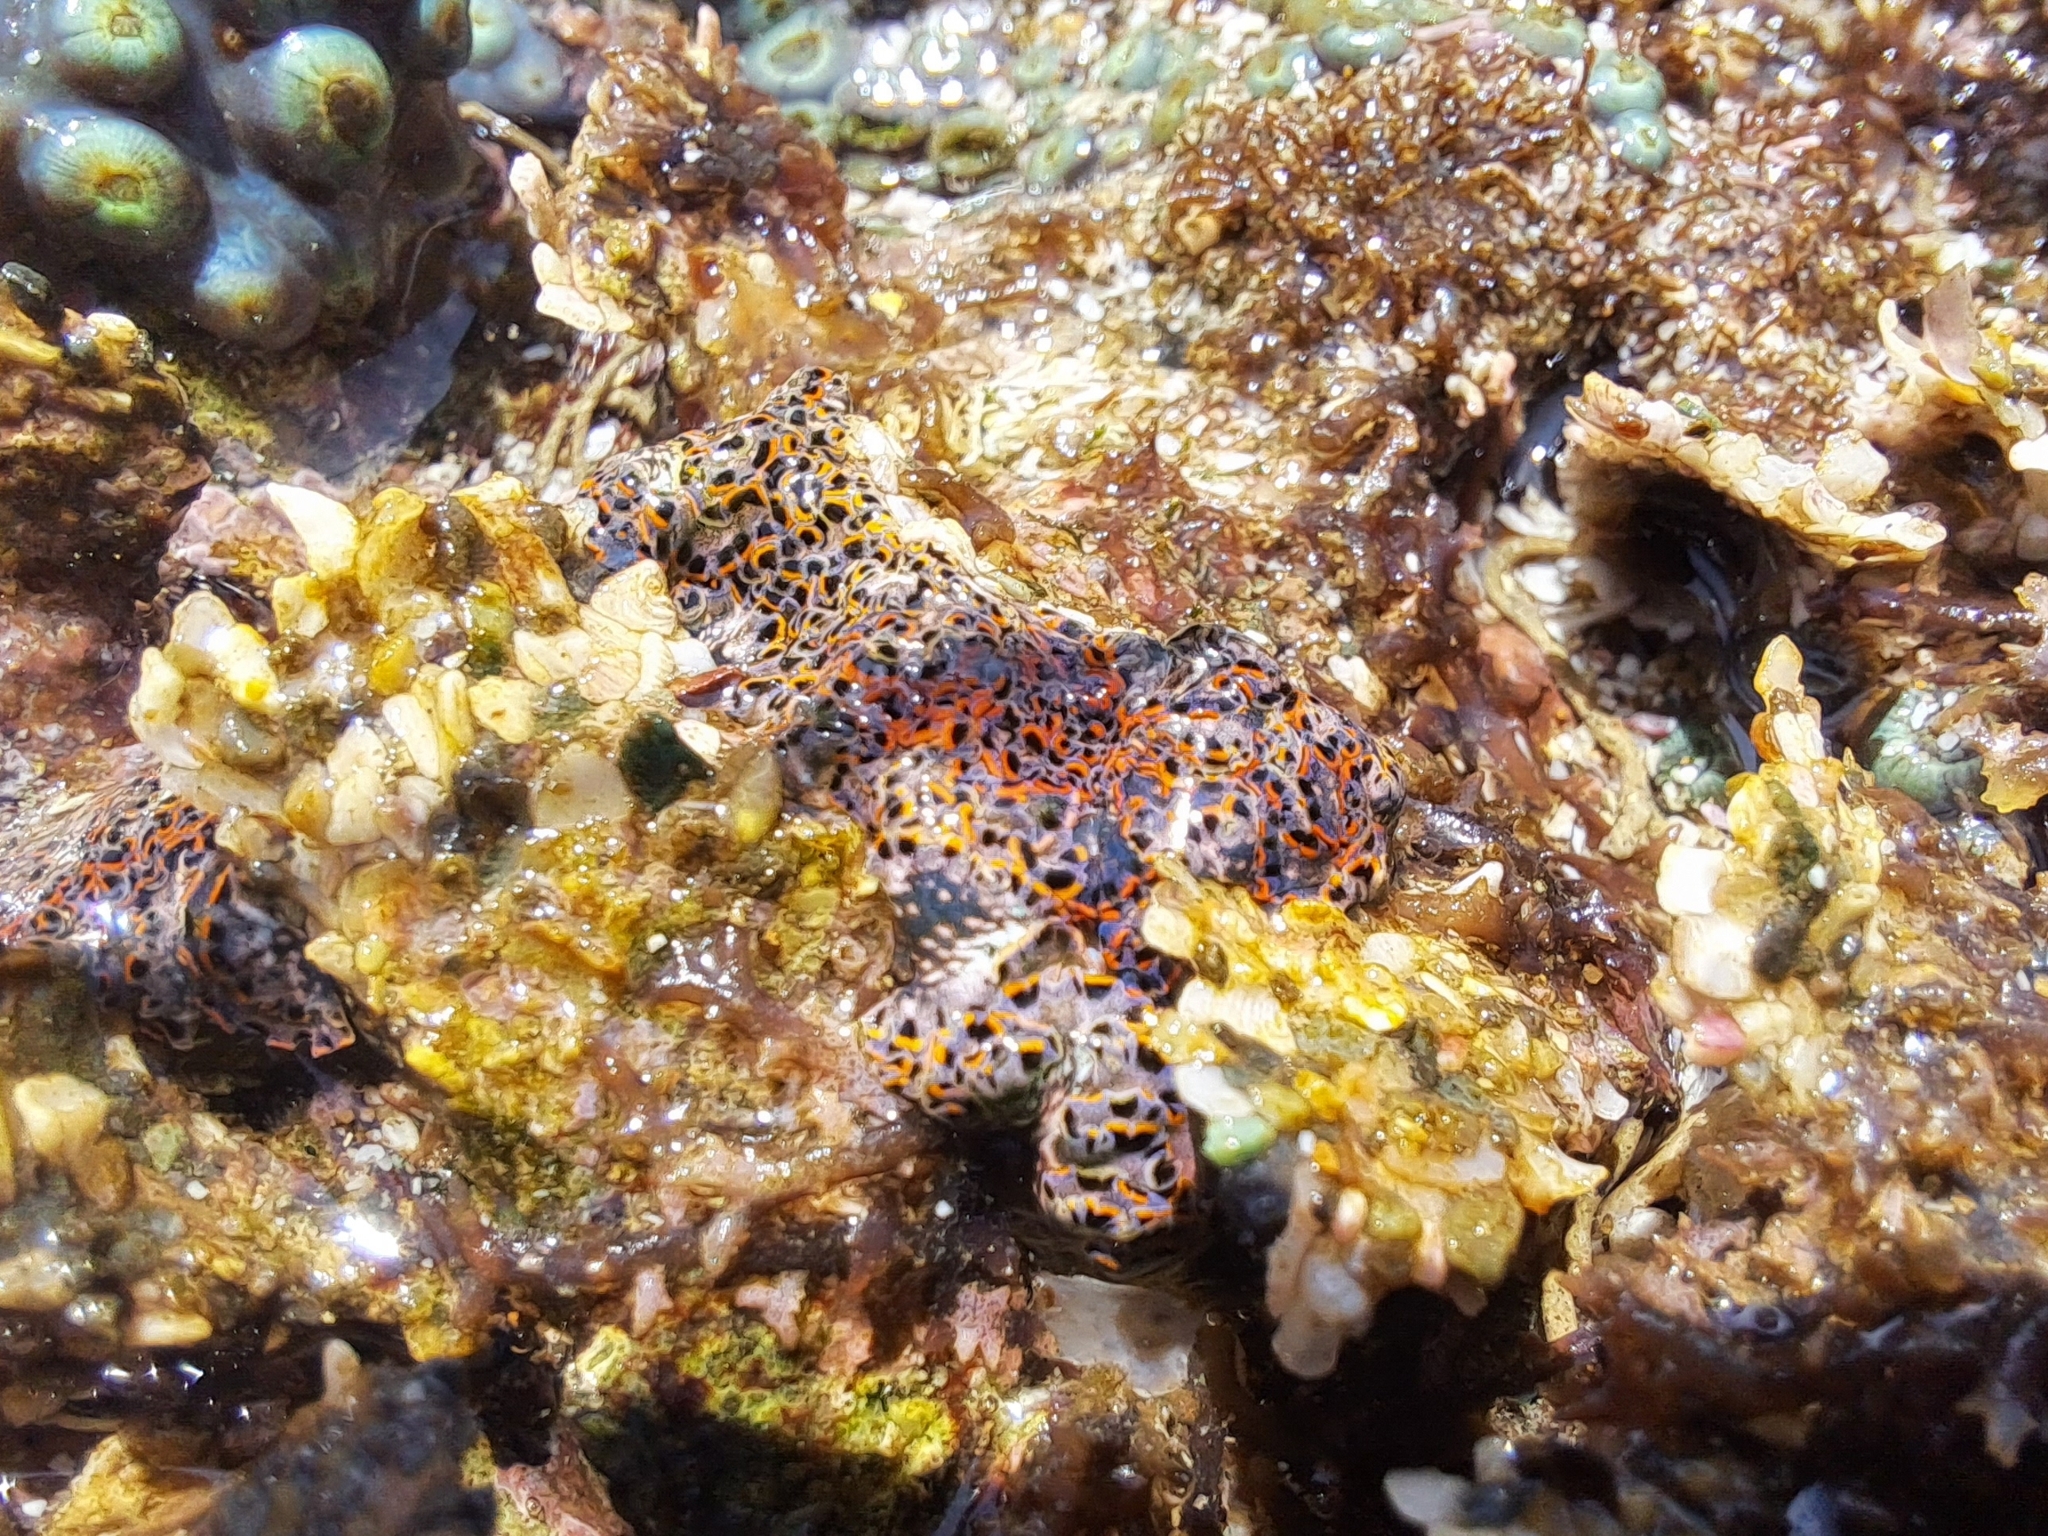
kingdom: Animalia
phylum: Mollusca
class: Gastropoda
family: Plakobranchidae
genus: Elysia
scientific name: Elysia diomedea
